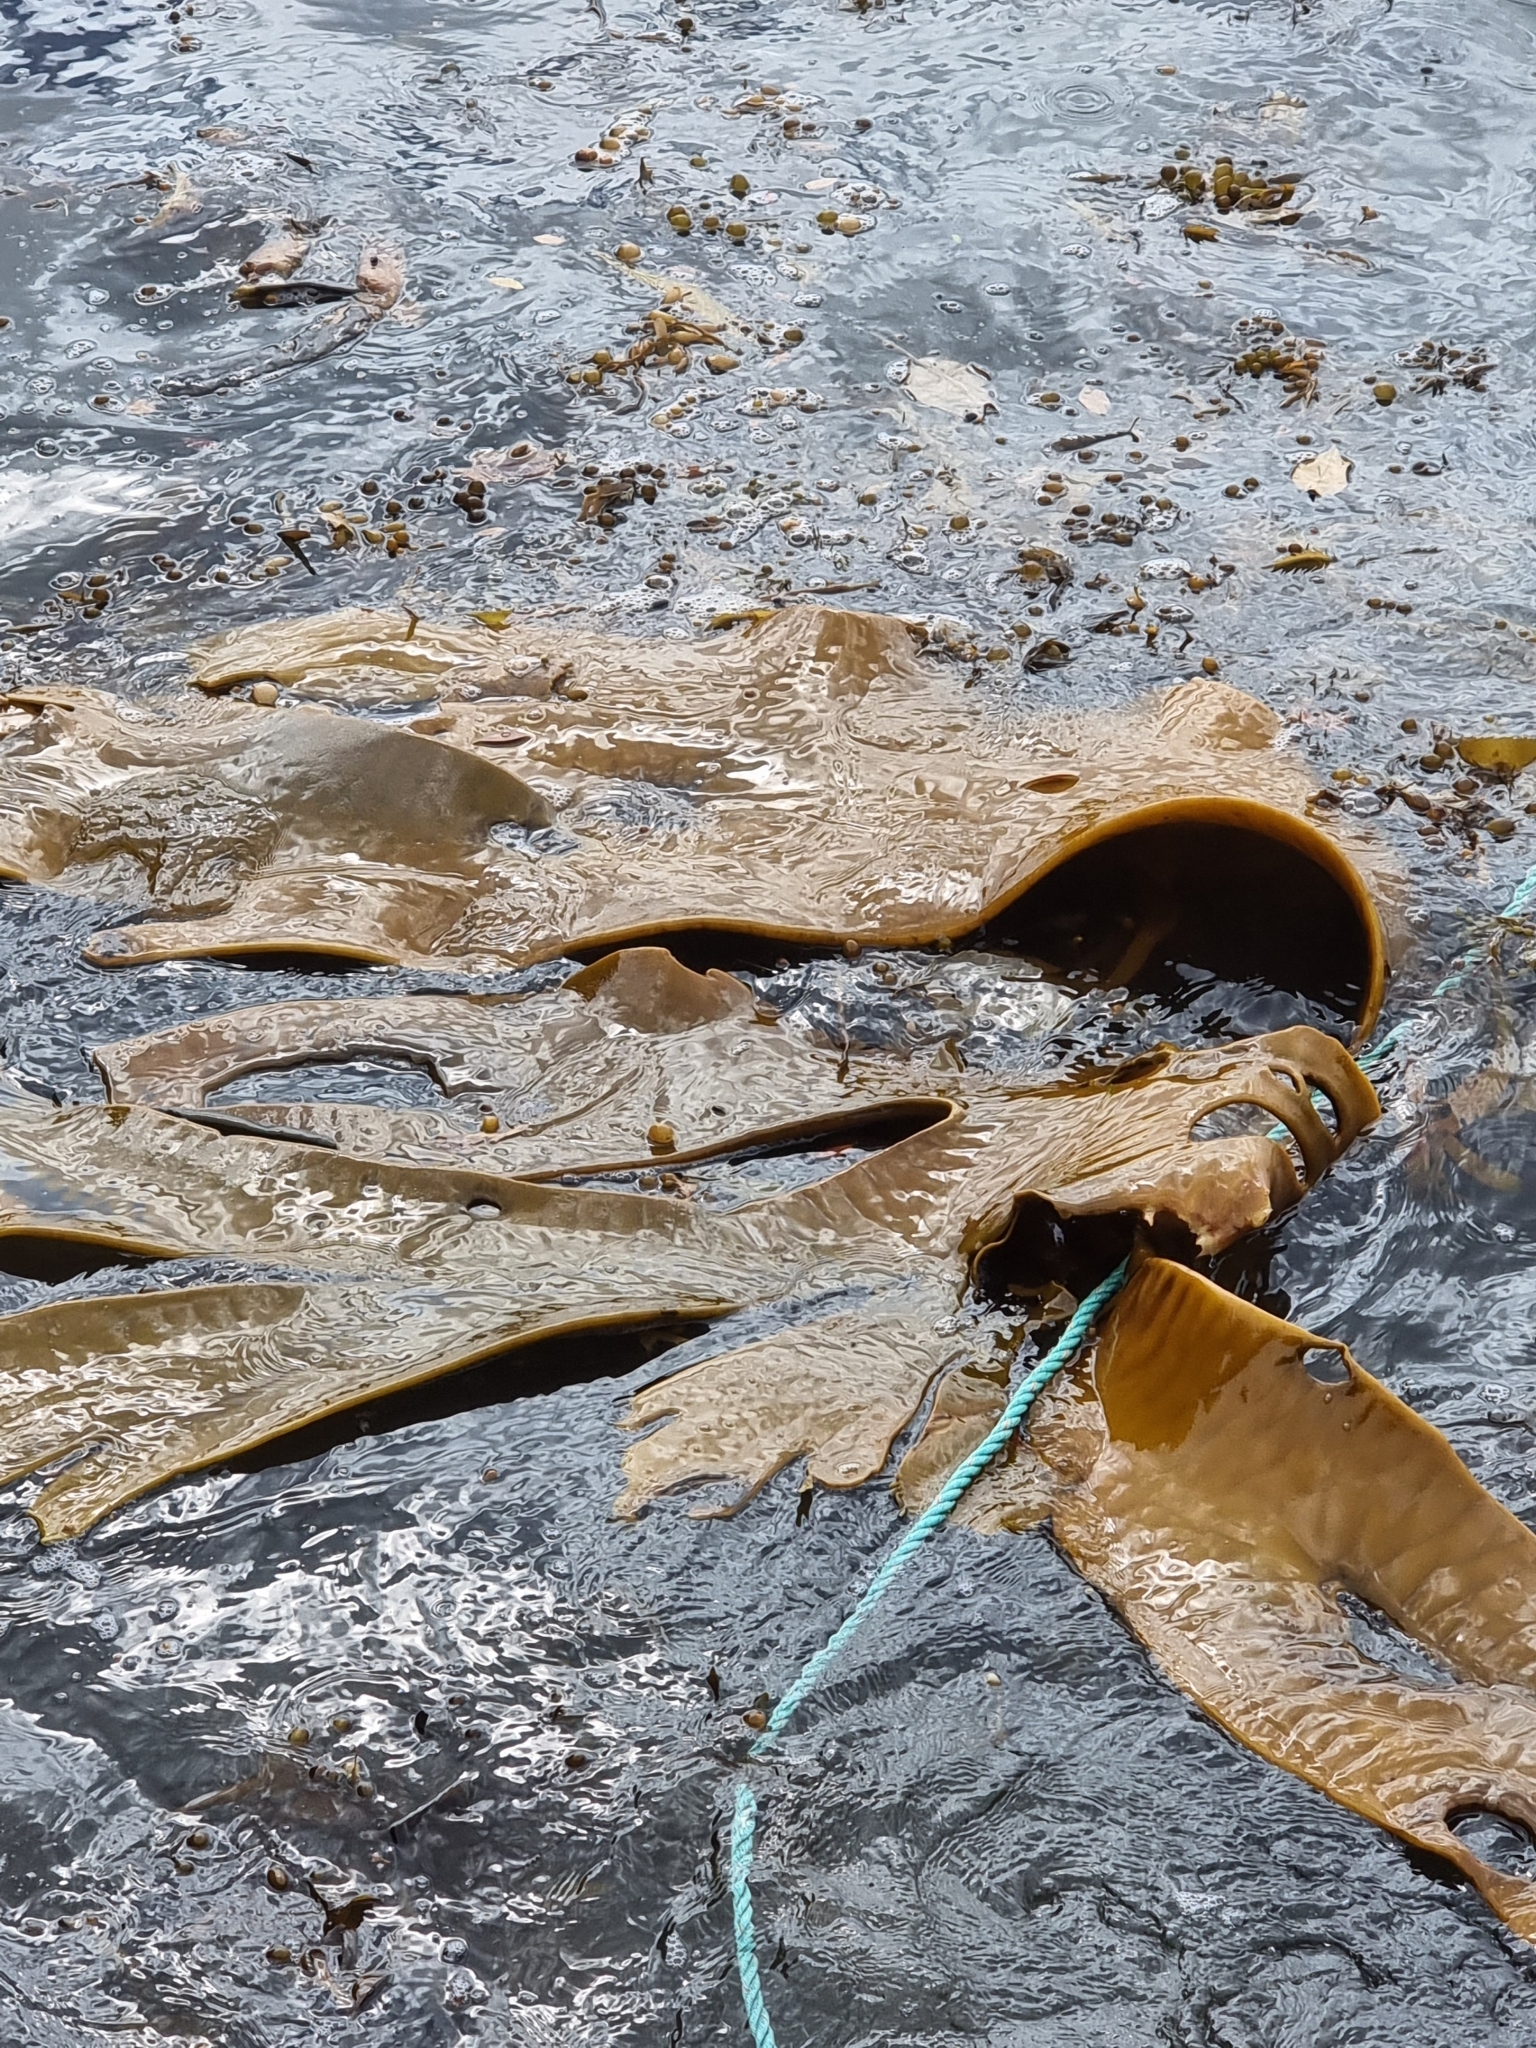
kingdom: Chromista
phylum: Ochrophyta
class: Phaeophyceae
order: Fucales
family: Durvillaeaceae
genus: Durvillaea
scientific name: Durvillaea poha
